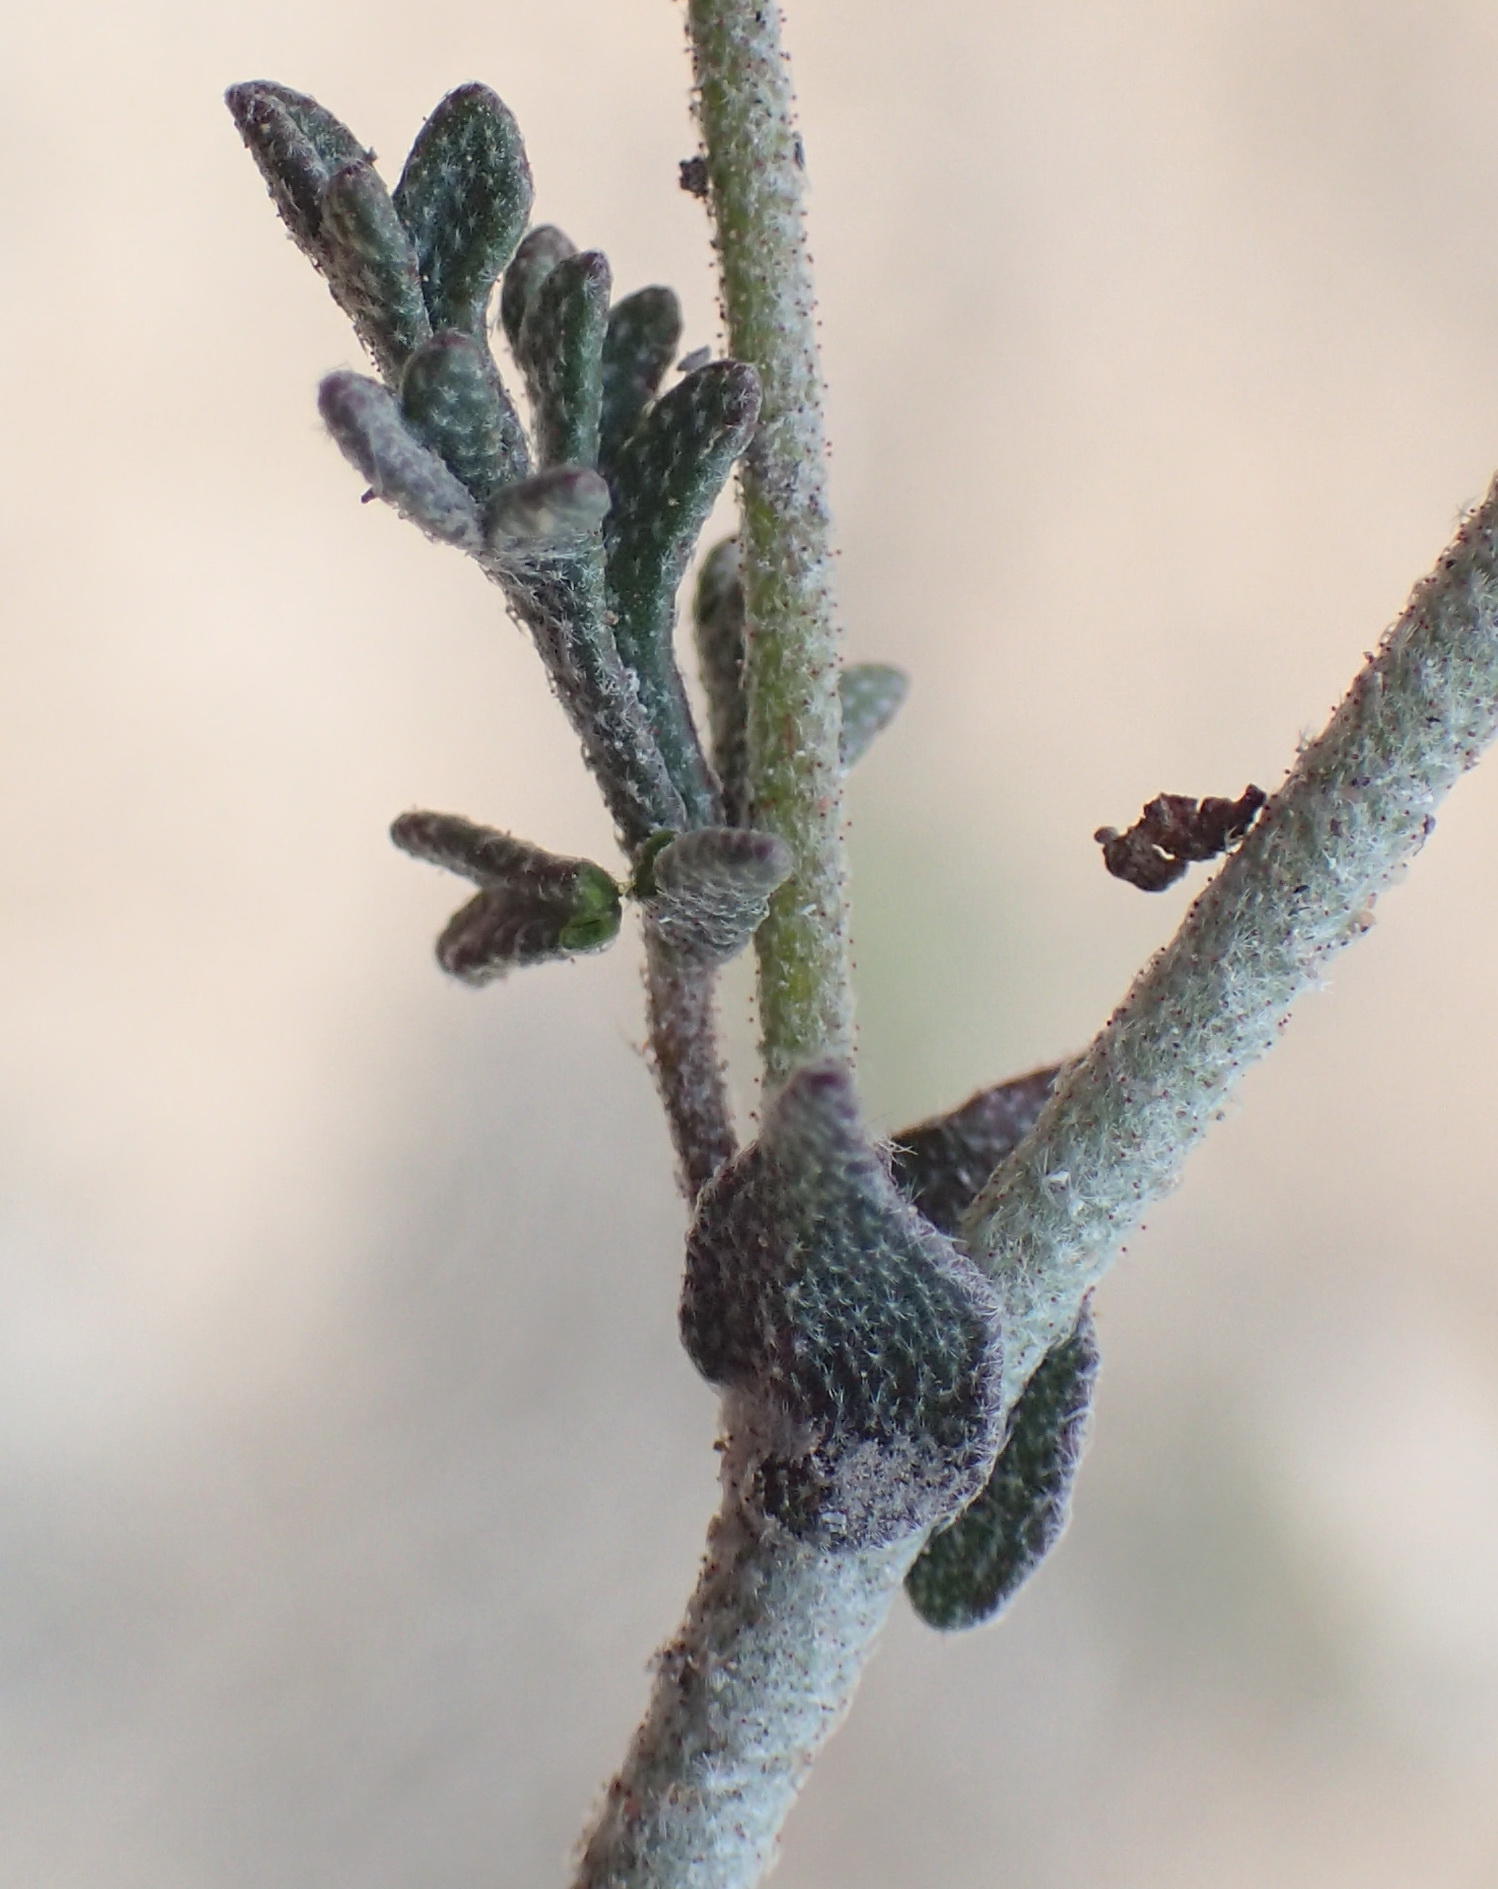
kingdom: Plantae
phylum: Tracheophyta
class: Magnoliopsida
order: Malvales
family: Malvaceae
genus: Hermannia
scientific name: Hermannia pulverata
